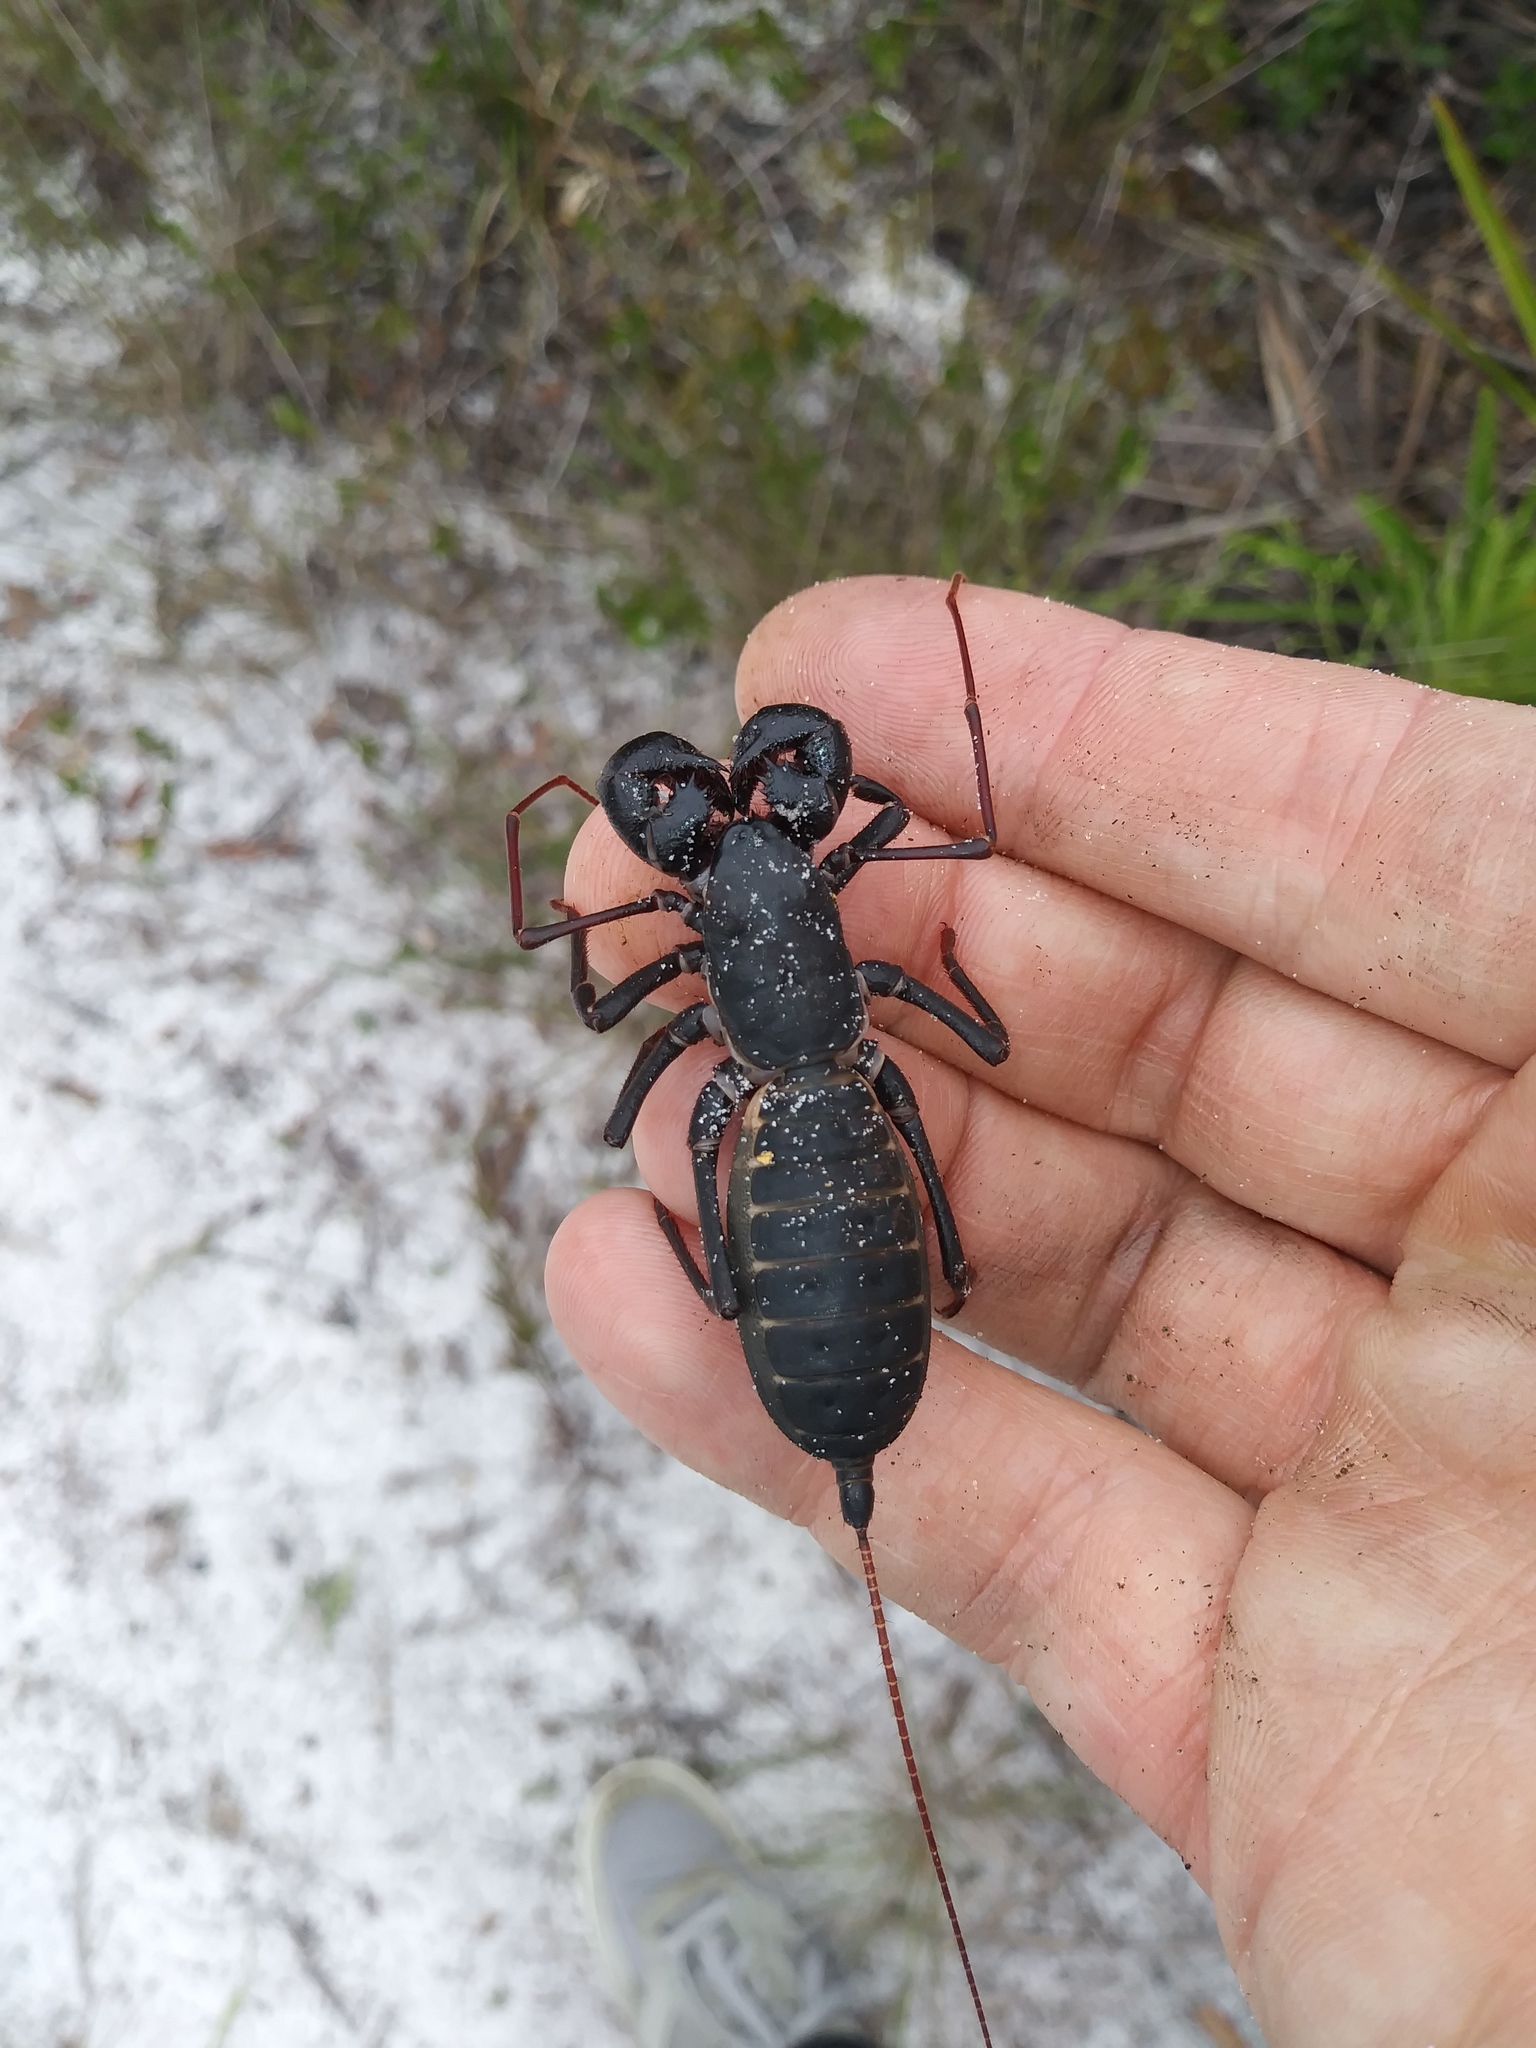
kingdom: Animalia
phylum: Arthropoda
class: Arachnida
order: Uropygi
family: Thelyphonidae
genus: Mastigoproctus
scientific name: Mastigoproctus floridanus
